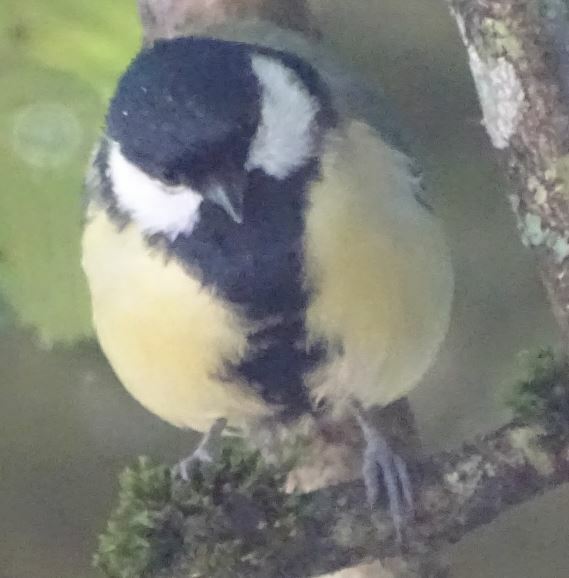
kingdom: Animalia
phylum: Chordata
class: Aves
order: Passeriformes
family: Paridae
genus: Parus
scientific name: Parus major
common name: Great tit
